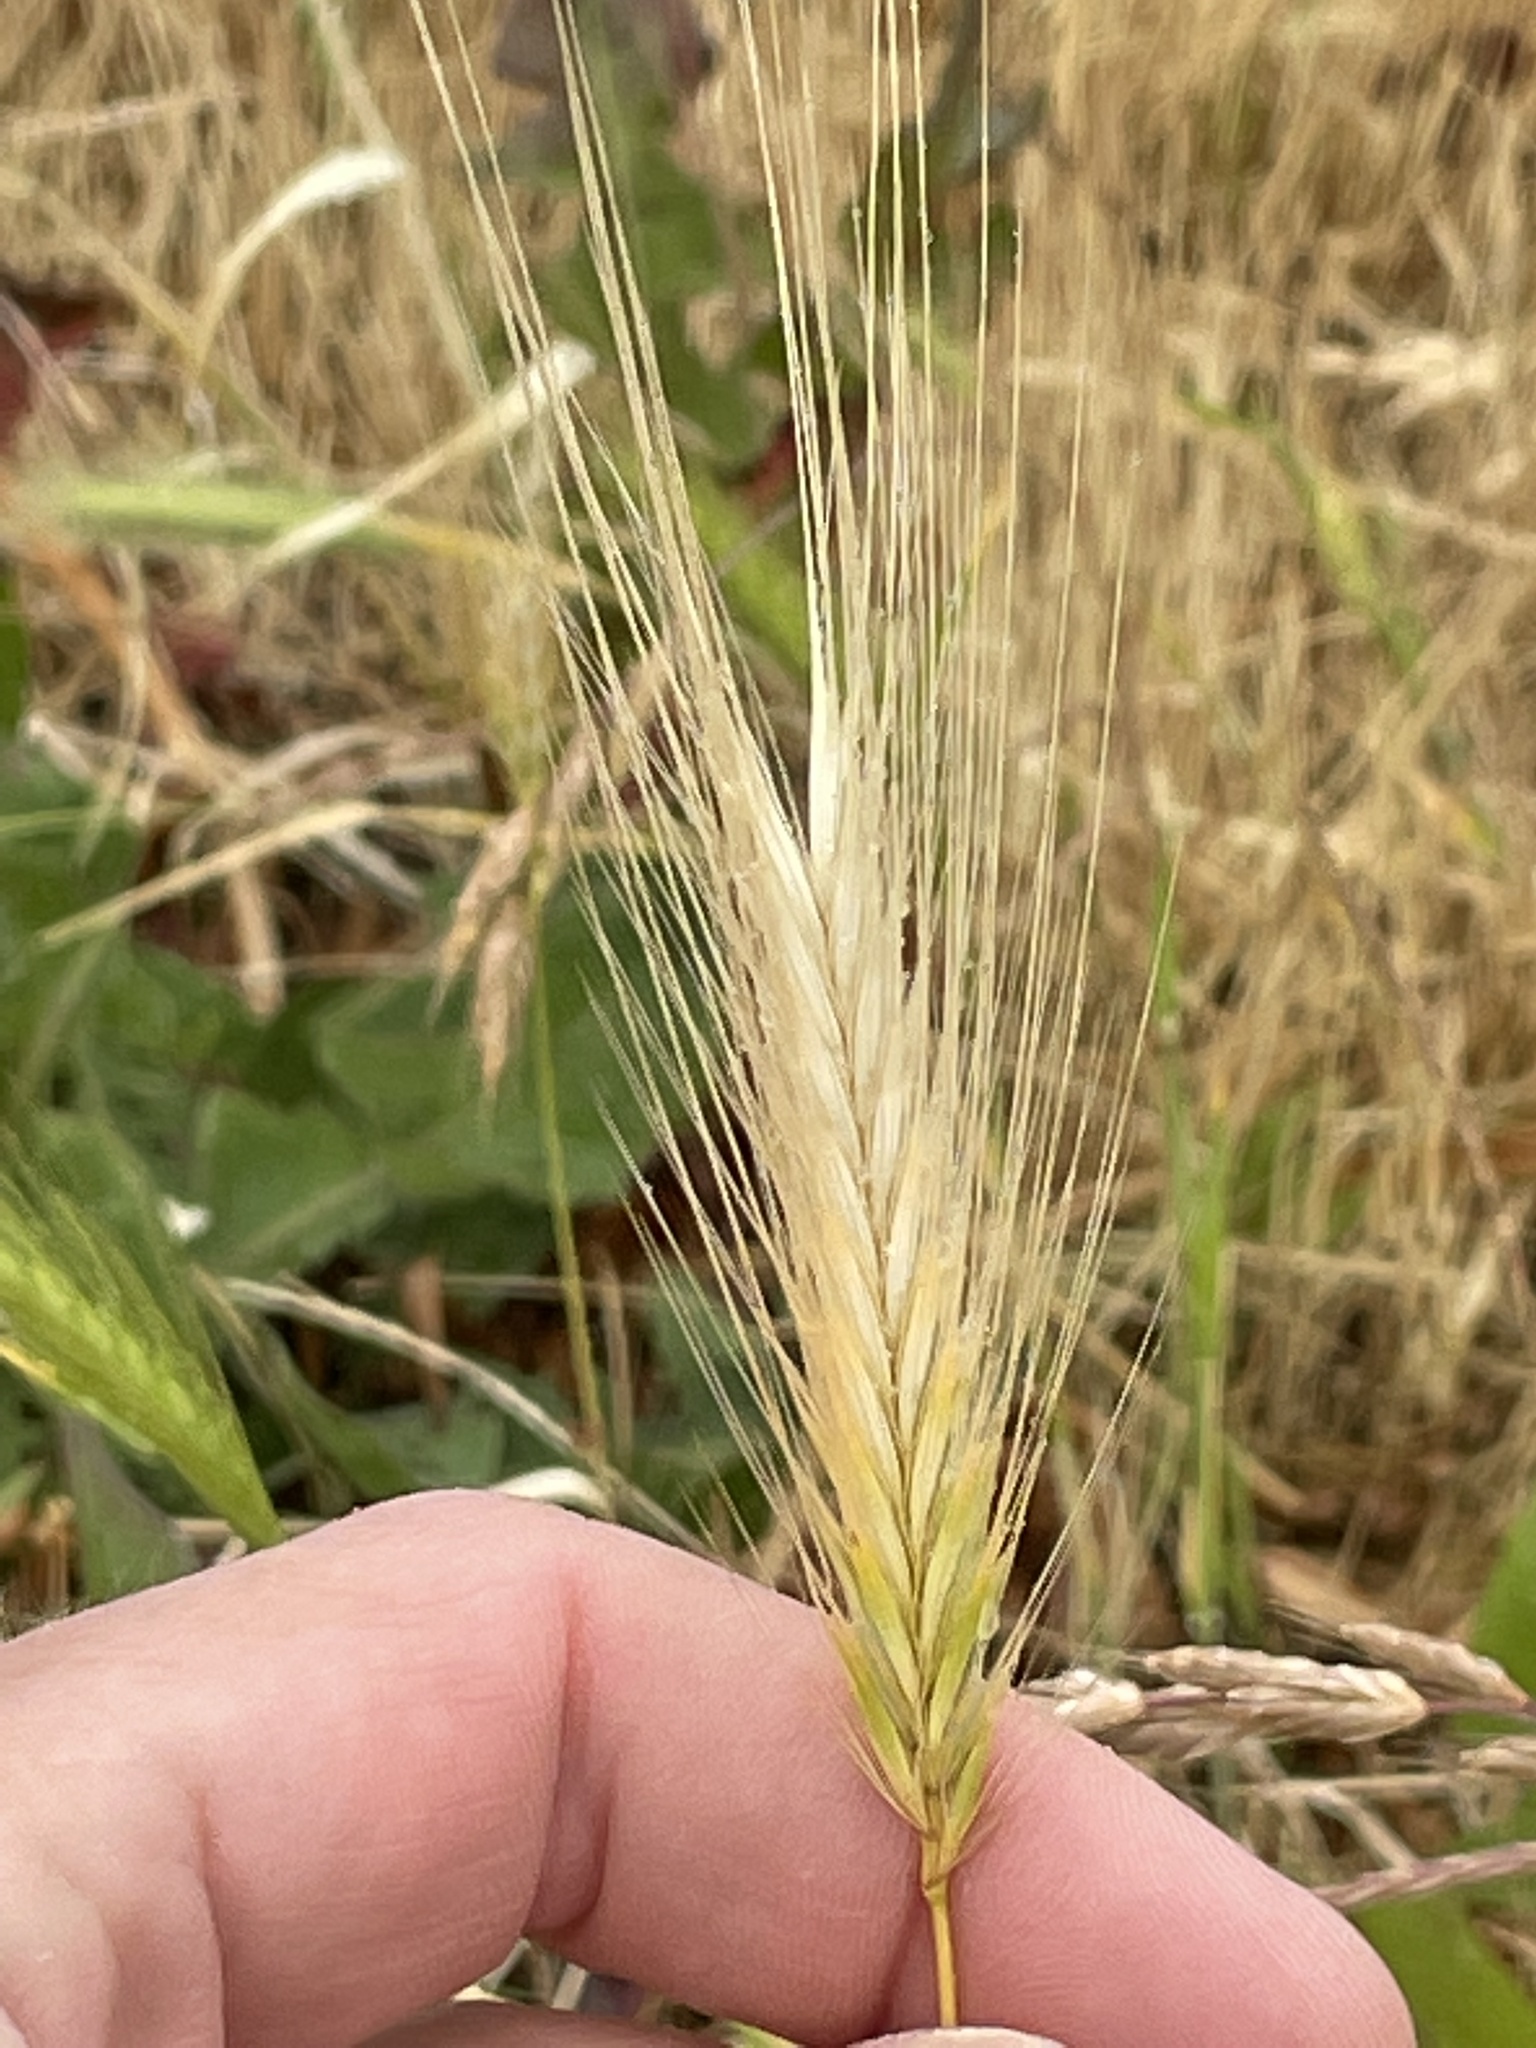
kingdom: Plantae
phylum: Tracheophyta
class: Liliopsida
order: Poales
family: Poaceae
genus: Hordeum
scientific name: Hordeum murinum
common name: Wall barley
